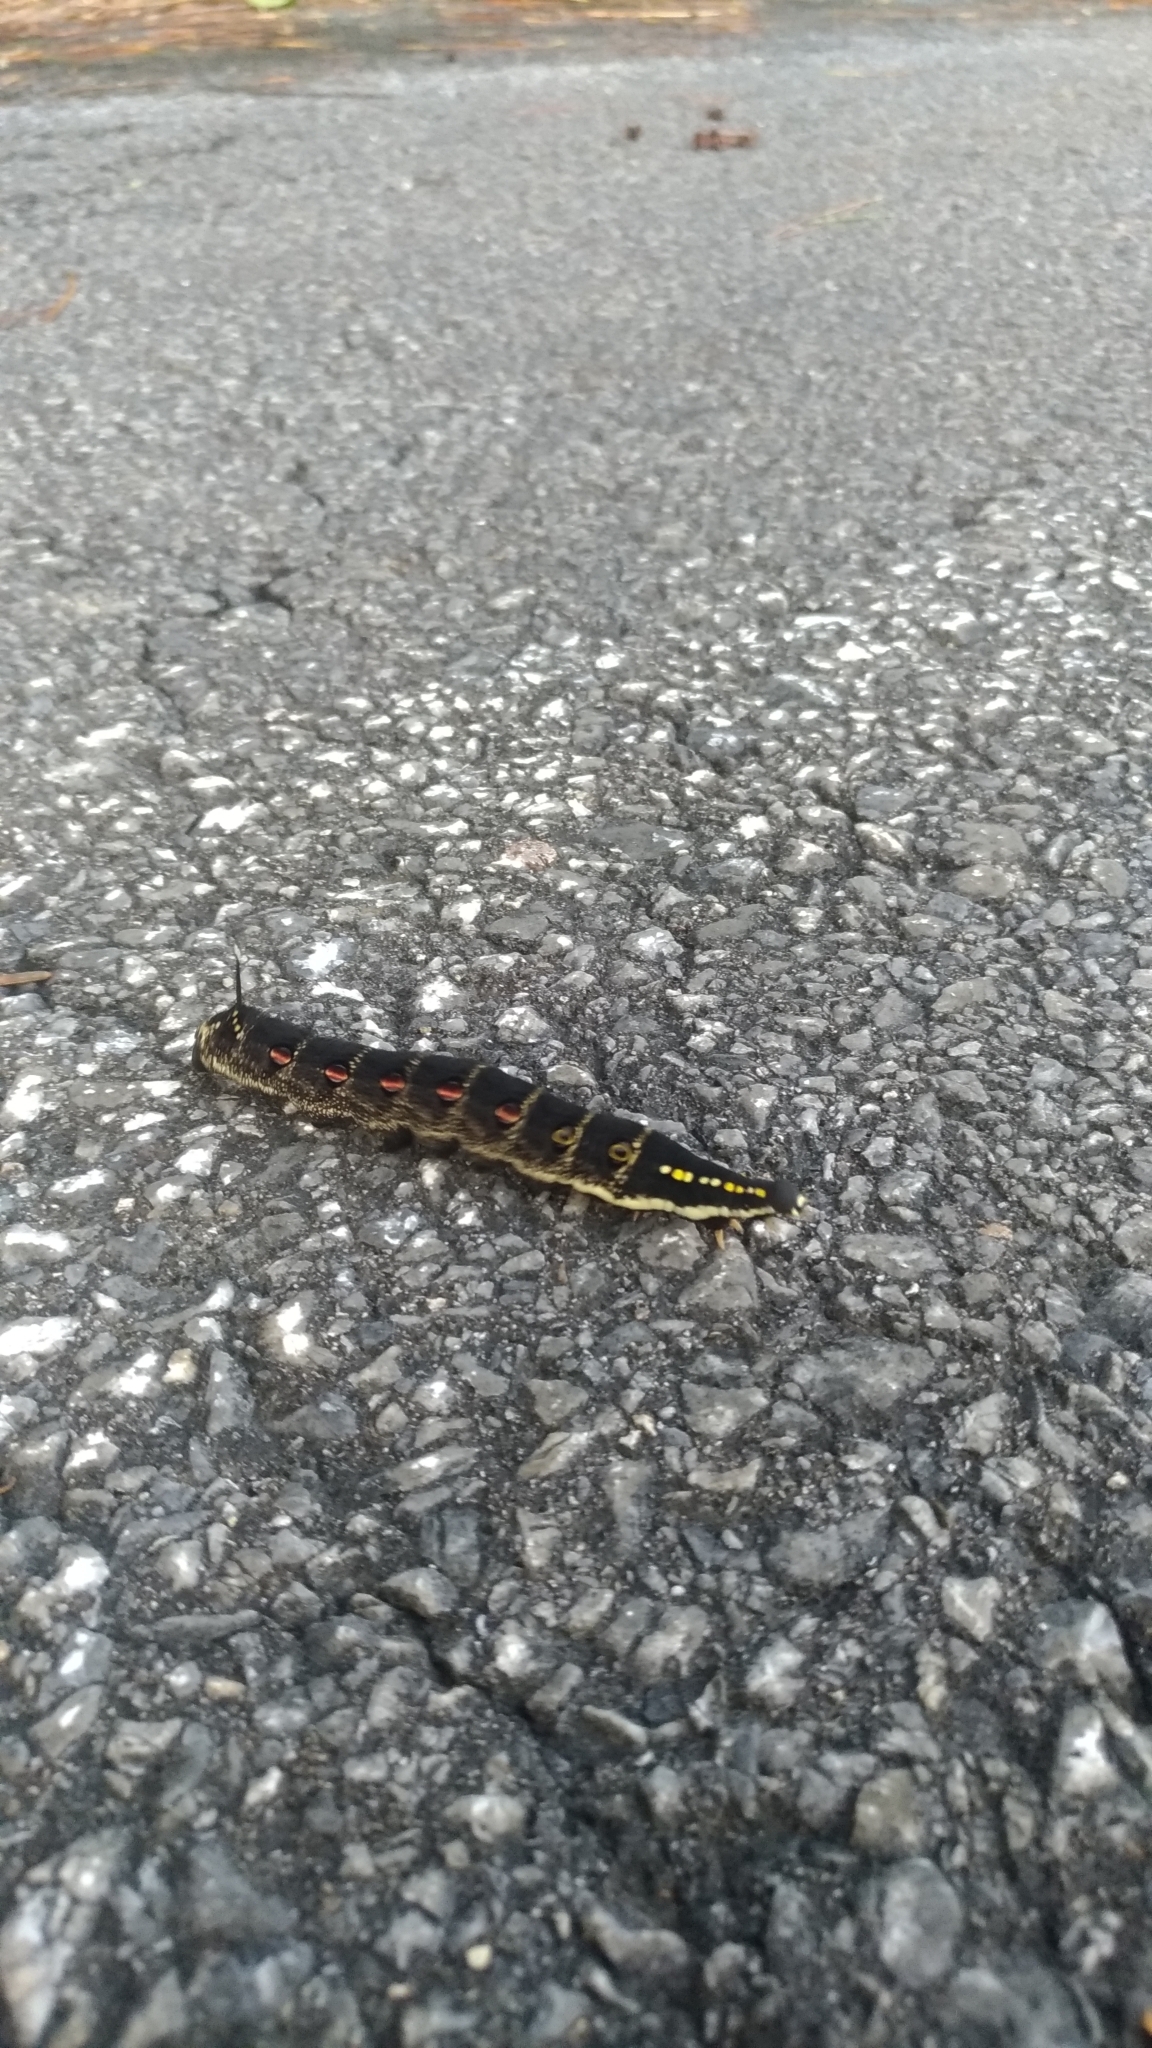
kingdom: Animalia
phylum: Arthropoda
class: Insecta
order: Lepidoptera
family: Sphingidae
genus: Theretra
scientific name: Theretra oldenlandiae
